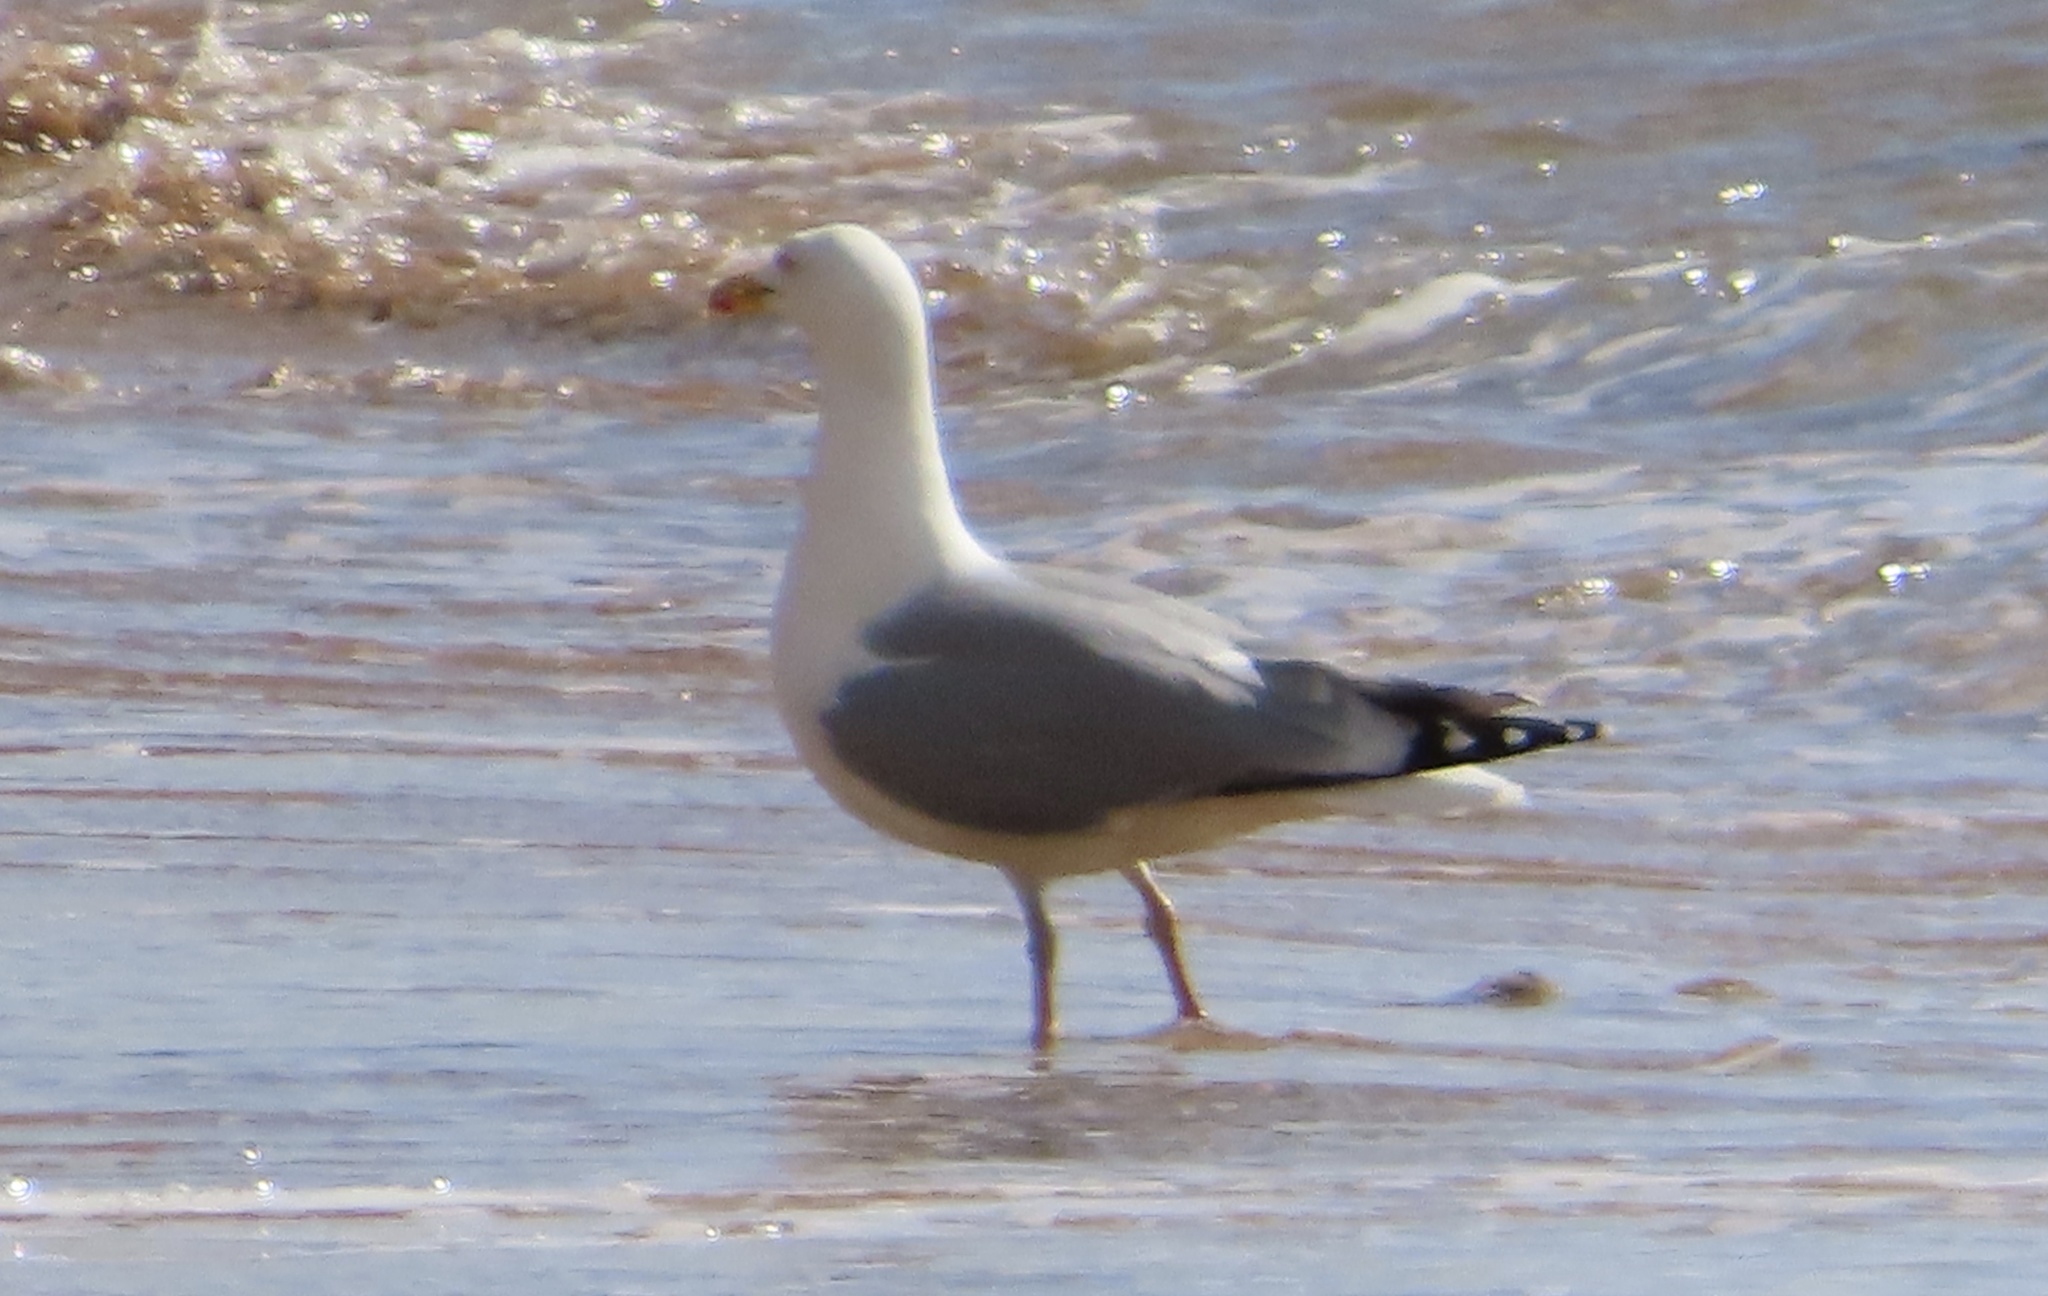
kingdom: Animalia
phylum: Chordata
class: Aves
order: Charadriiformes
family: Laridae
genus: Larus
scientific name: Larus argentatus
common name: Herring gull
